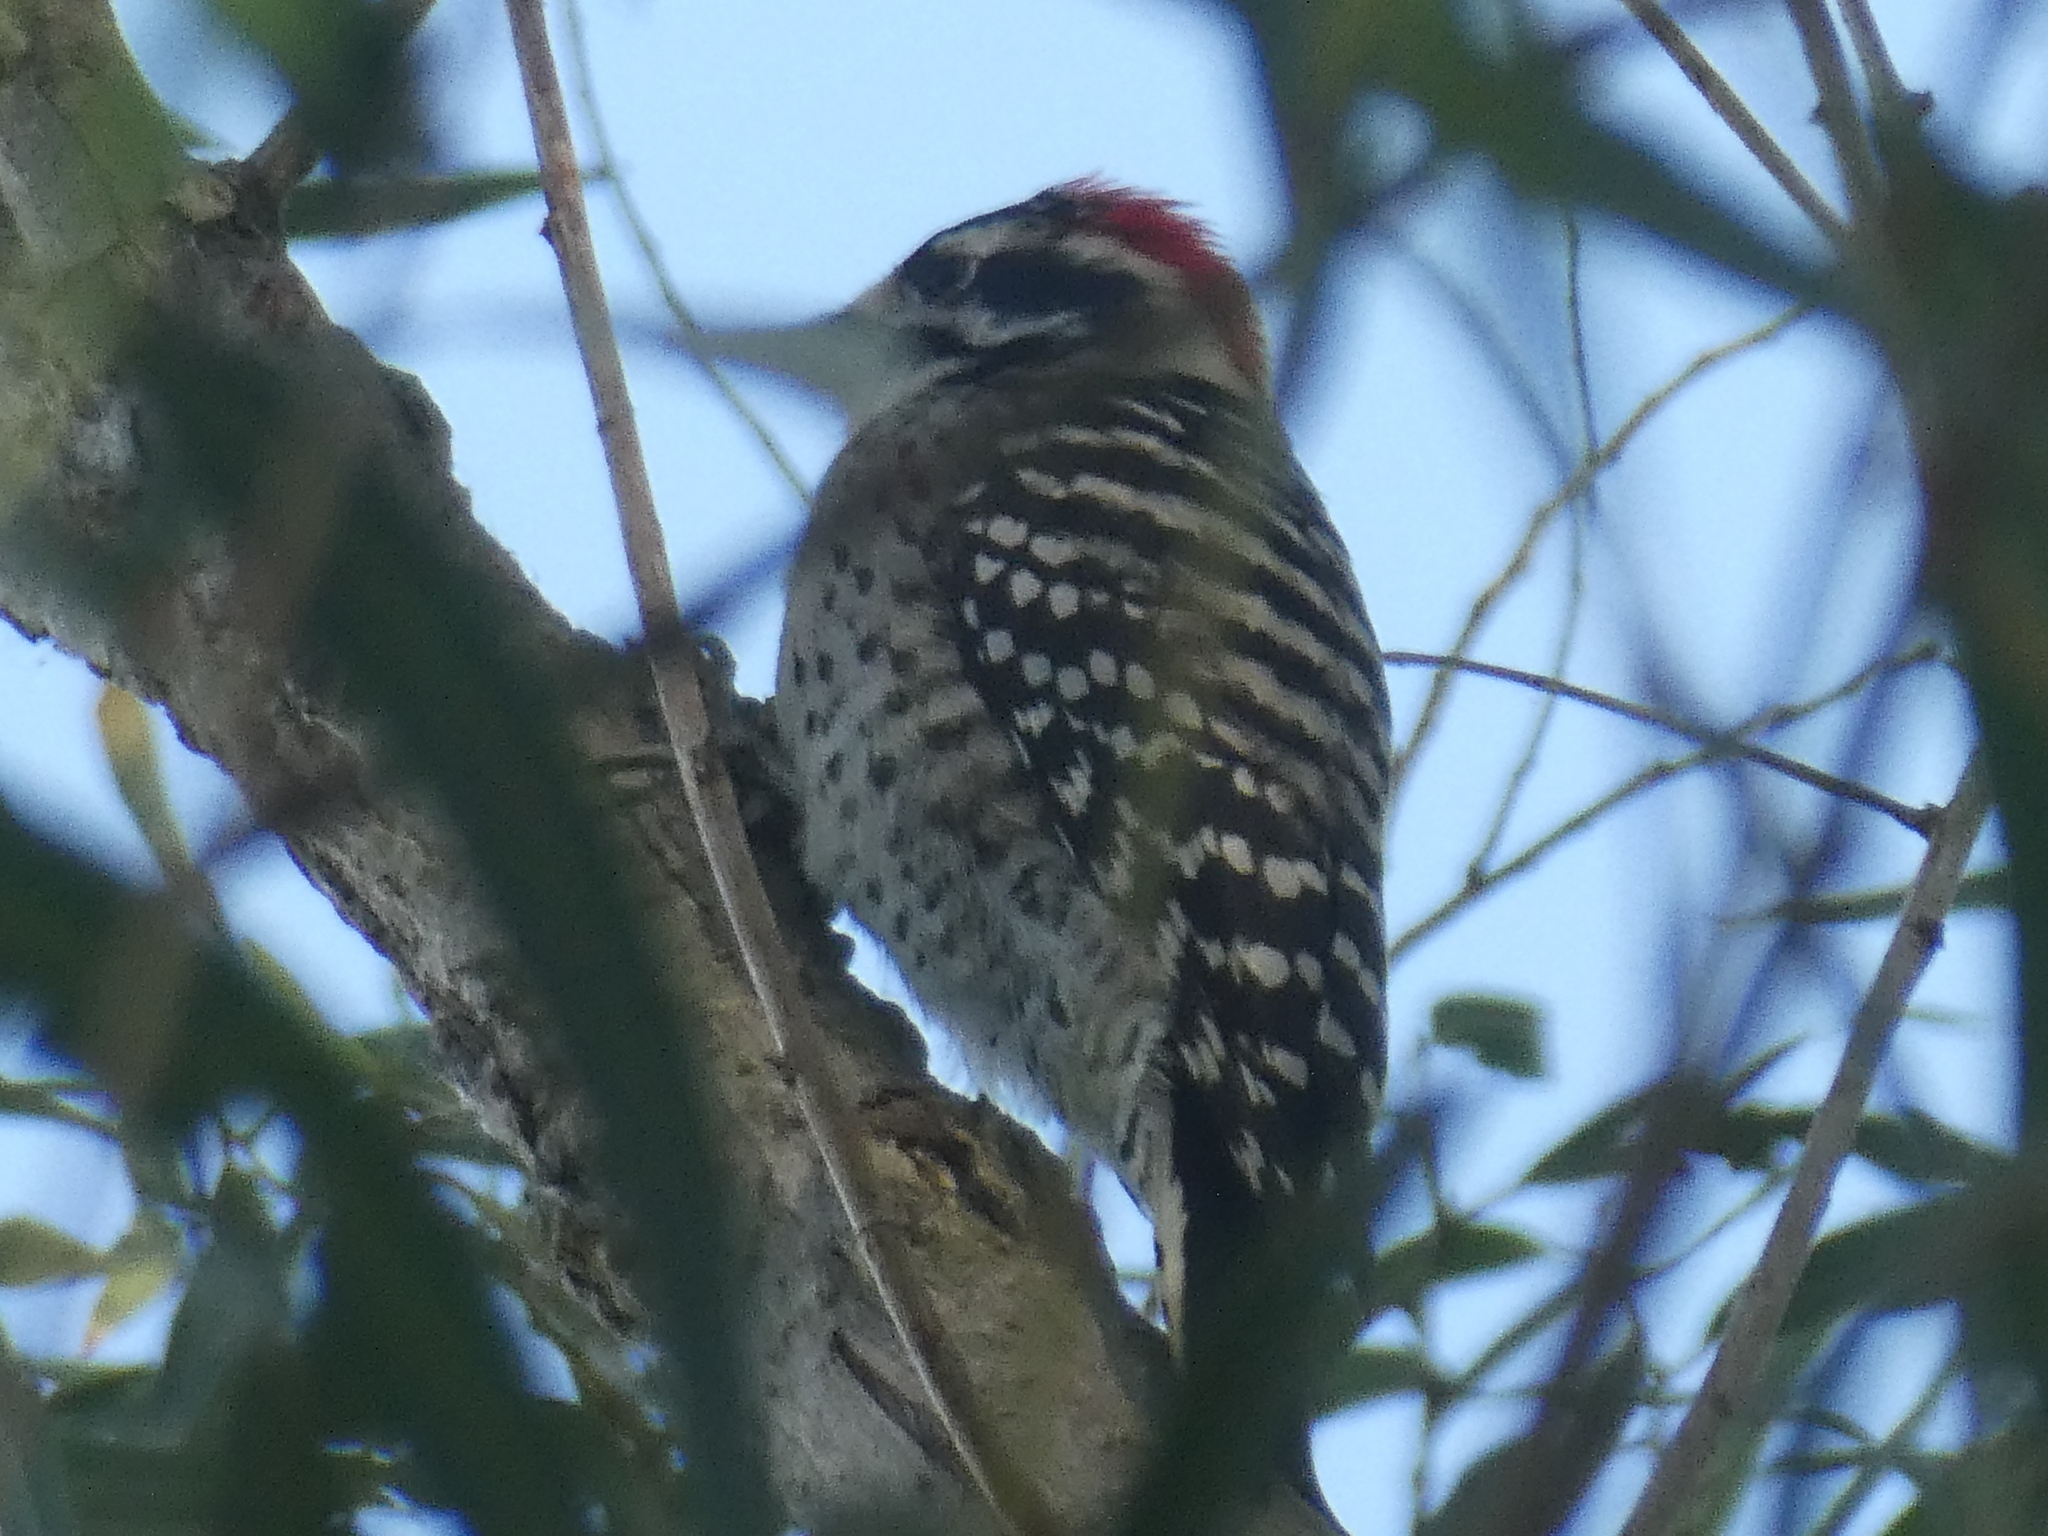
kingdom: Animalia
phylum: Chordata
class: Aves
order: Piciformes
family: Picidae
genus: Dryobates
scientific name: Dryobates nuttallii
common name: Nuttall's woodpecker
